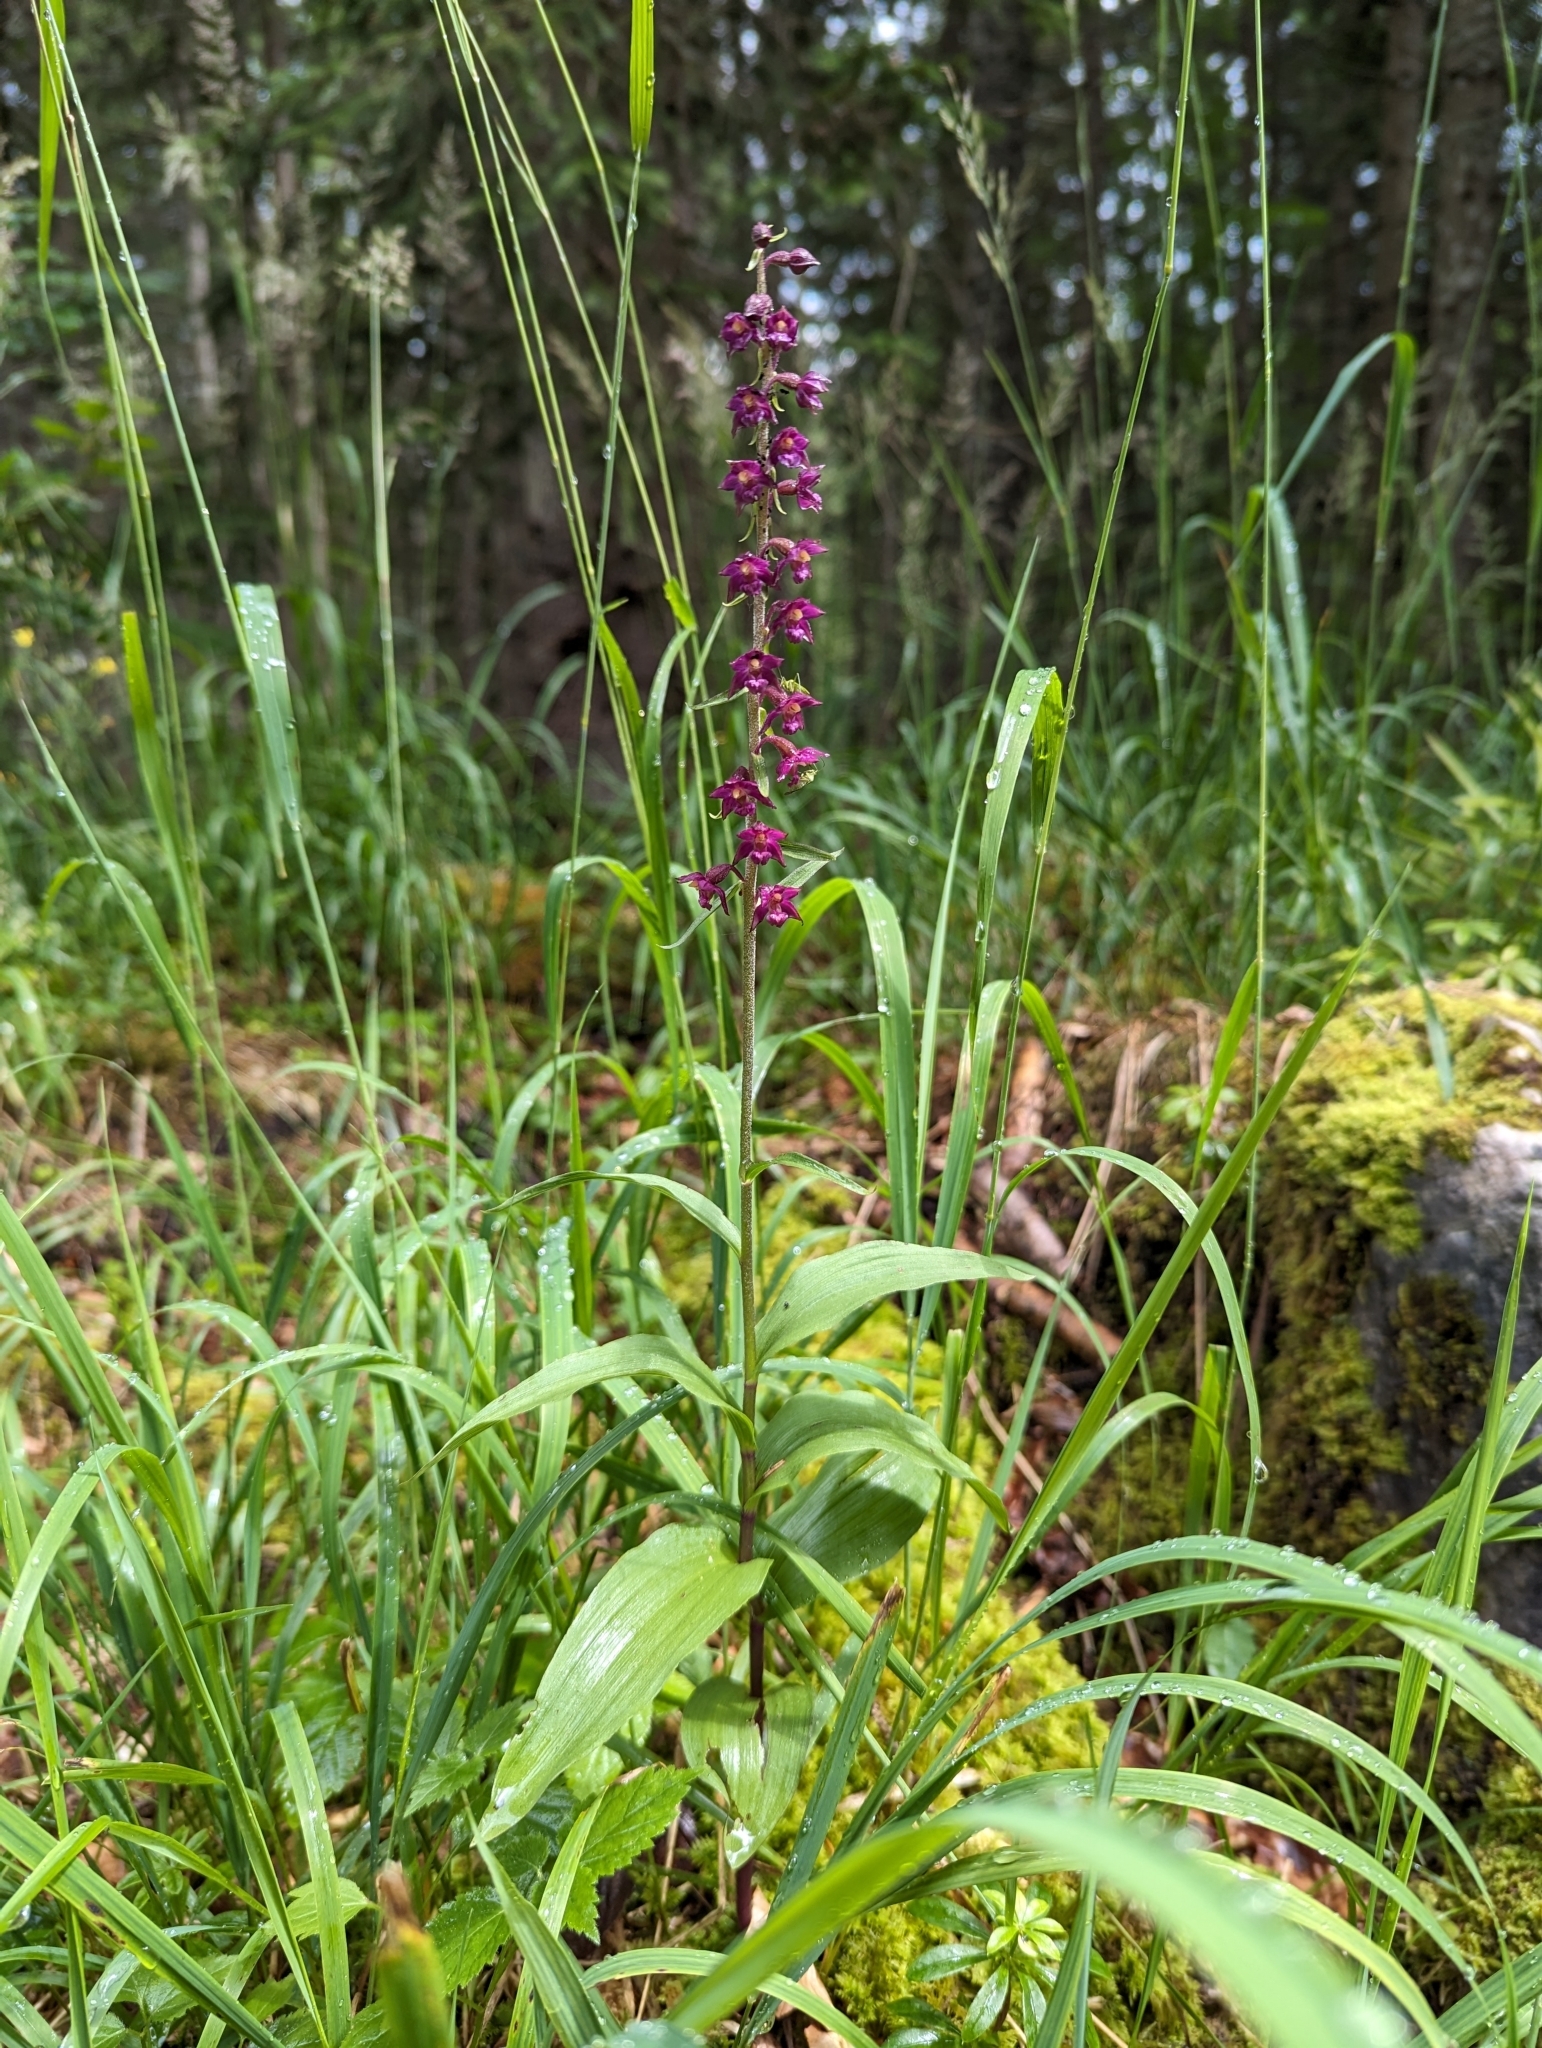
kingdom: Plantae
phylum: Tracheophyta
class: Liliopsida
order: Asparagales
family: Orchidaceae
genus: Epipactis
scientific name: Epipactis atrorubens
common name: Dark-red helleborine
